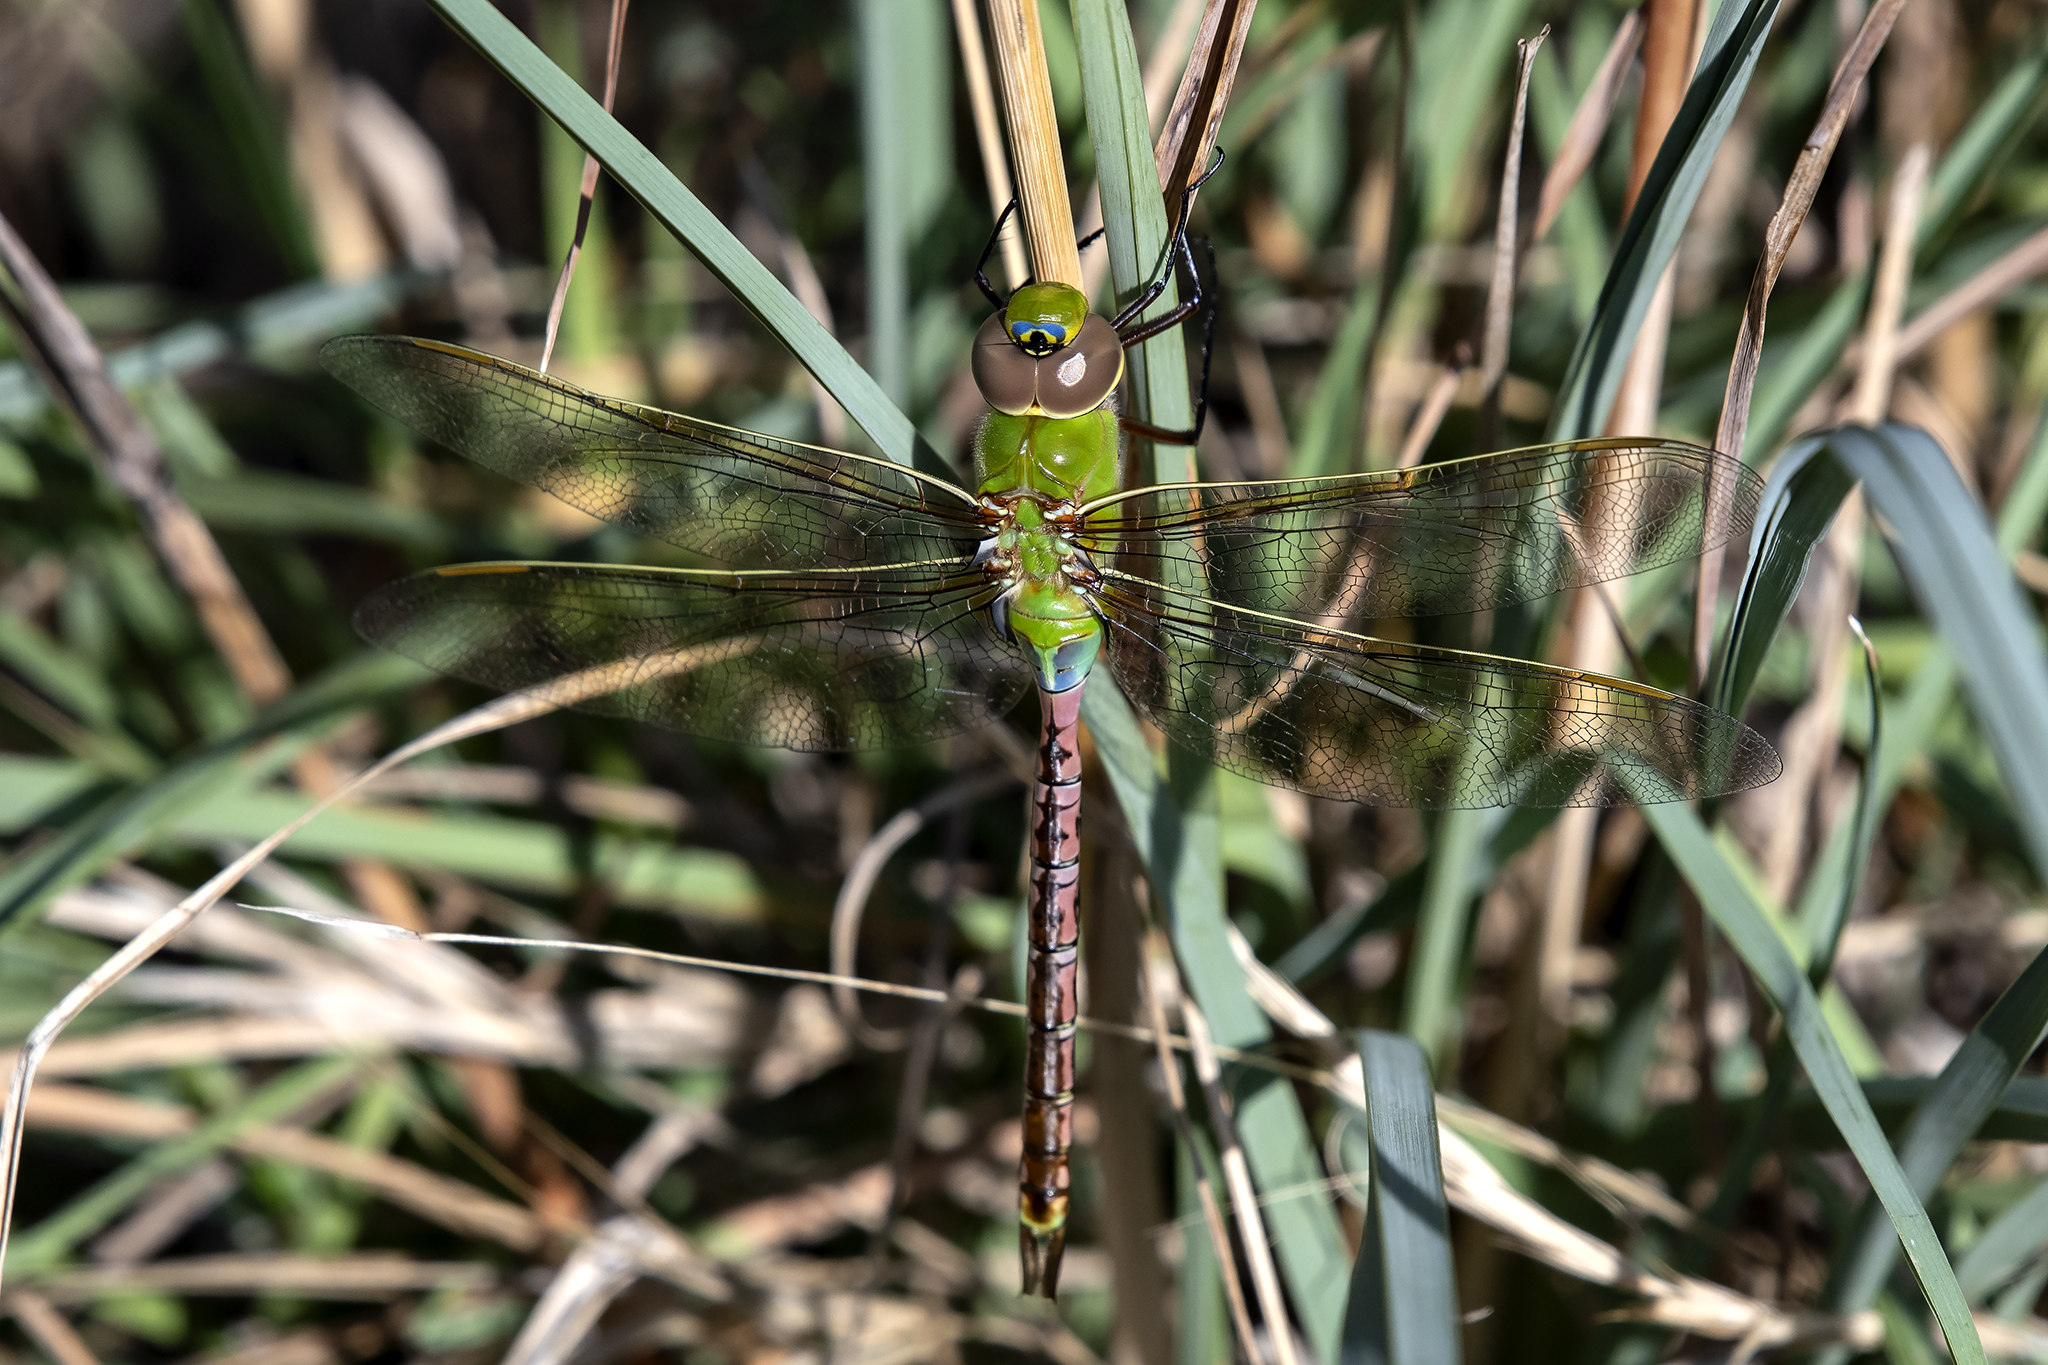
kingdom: Animalia
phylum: Arthropoda
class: Insecta
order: Odonata
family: Aeshnidae
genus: Anax
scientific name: Anax junius
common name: Common green darner
